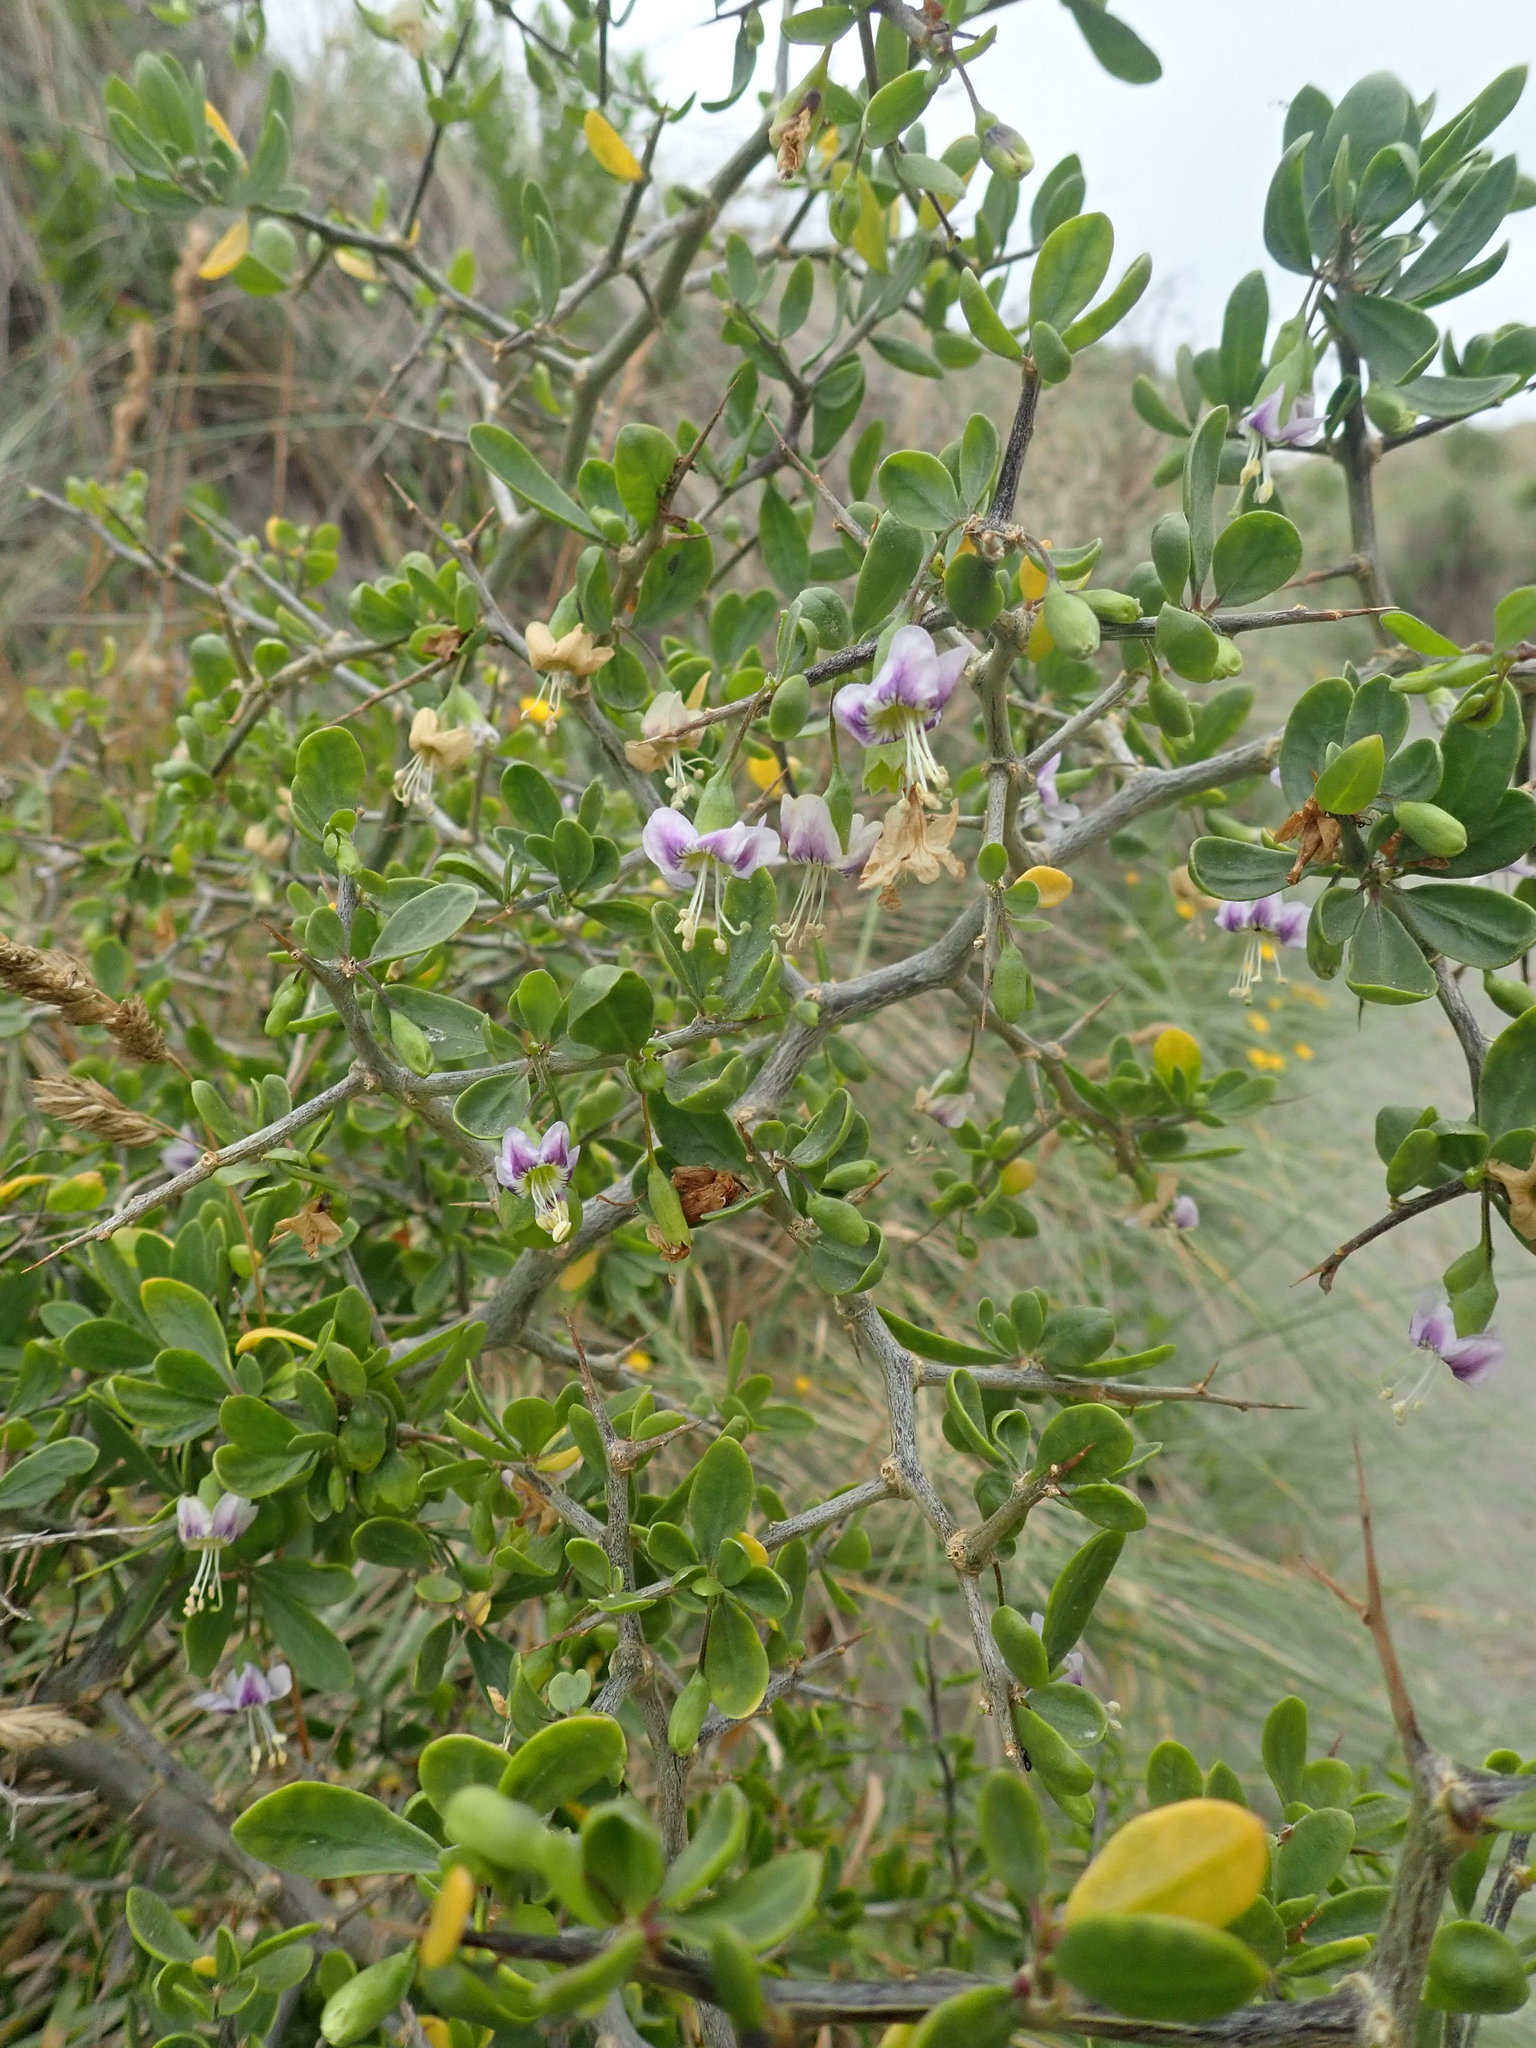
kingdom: Plantae
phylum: Tracheophyta
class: Magnoliopsida
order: Solanales
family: Solanaceae
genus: Lycium
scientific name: Lycium ferocissimum
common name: African boxthorn
